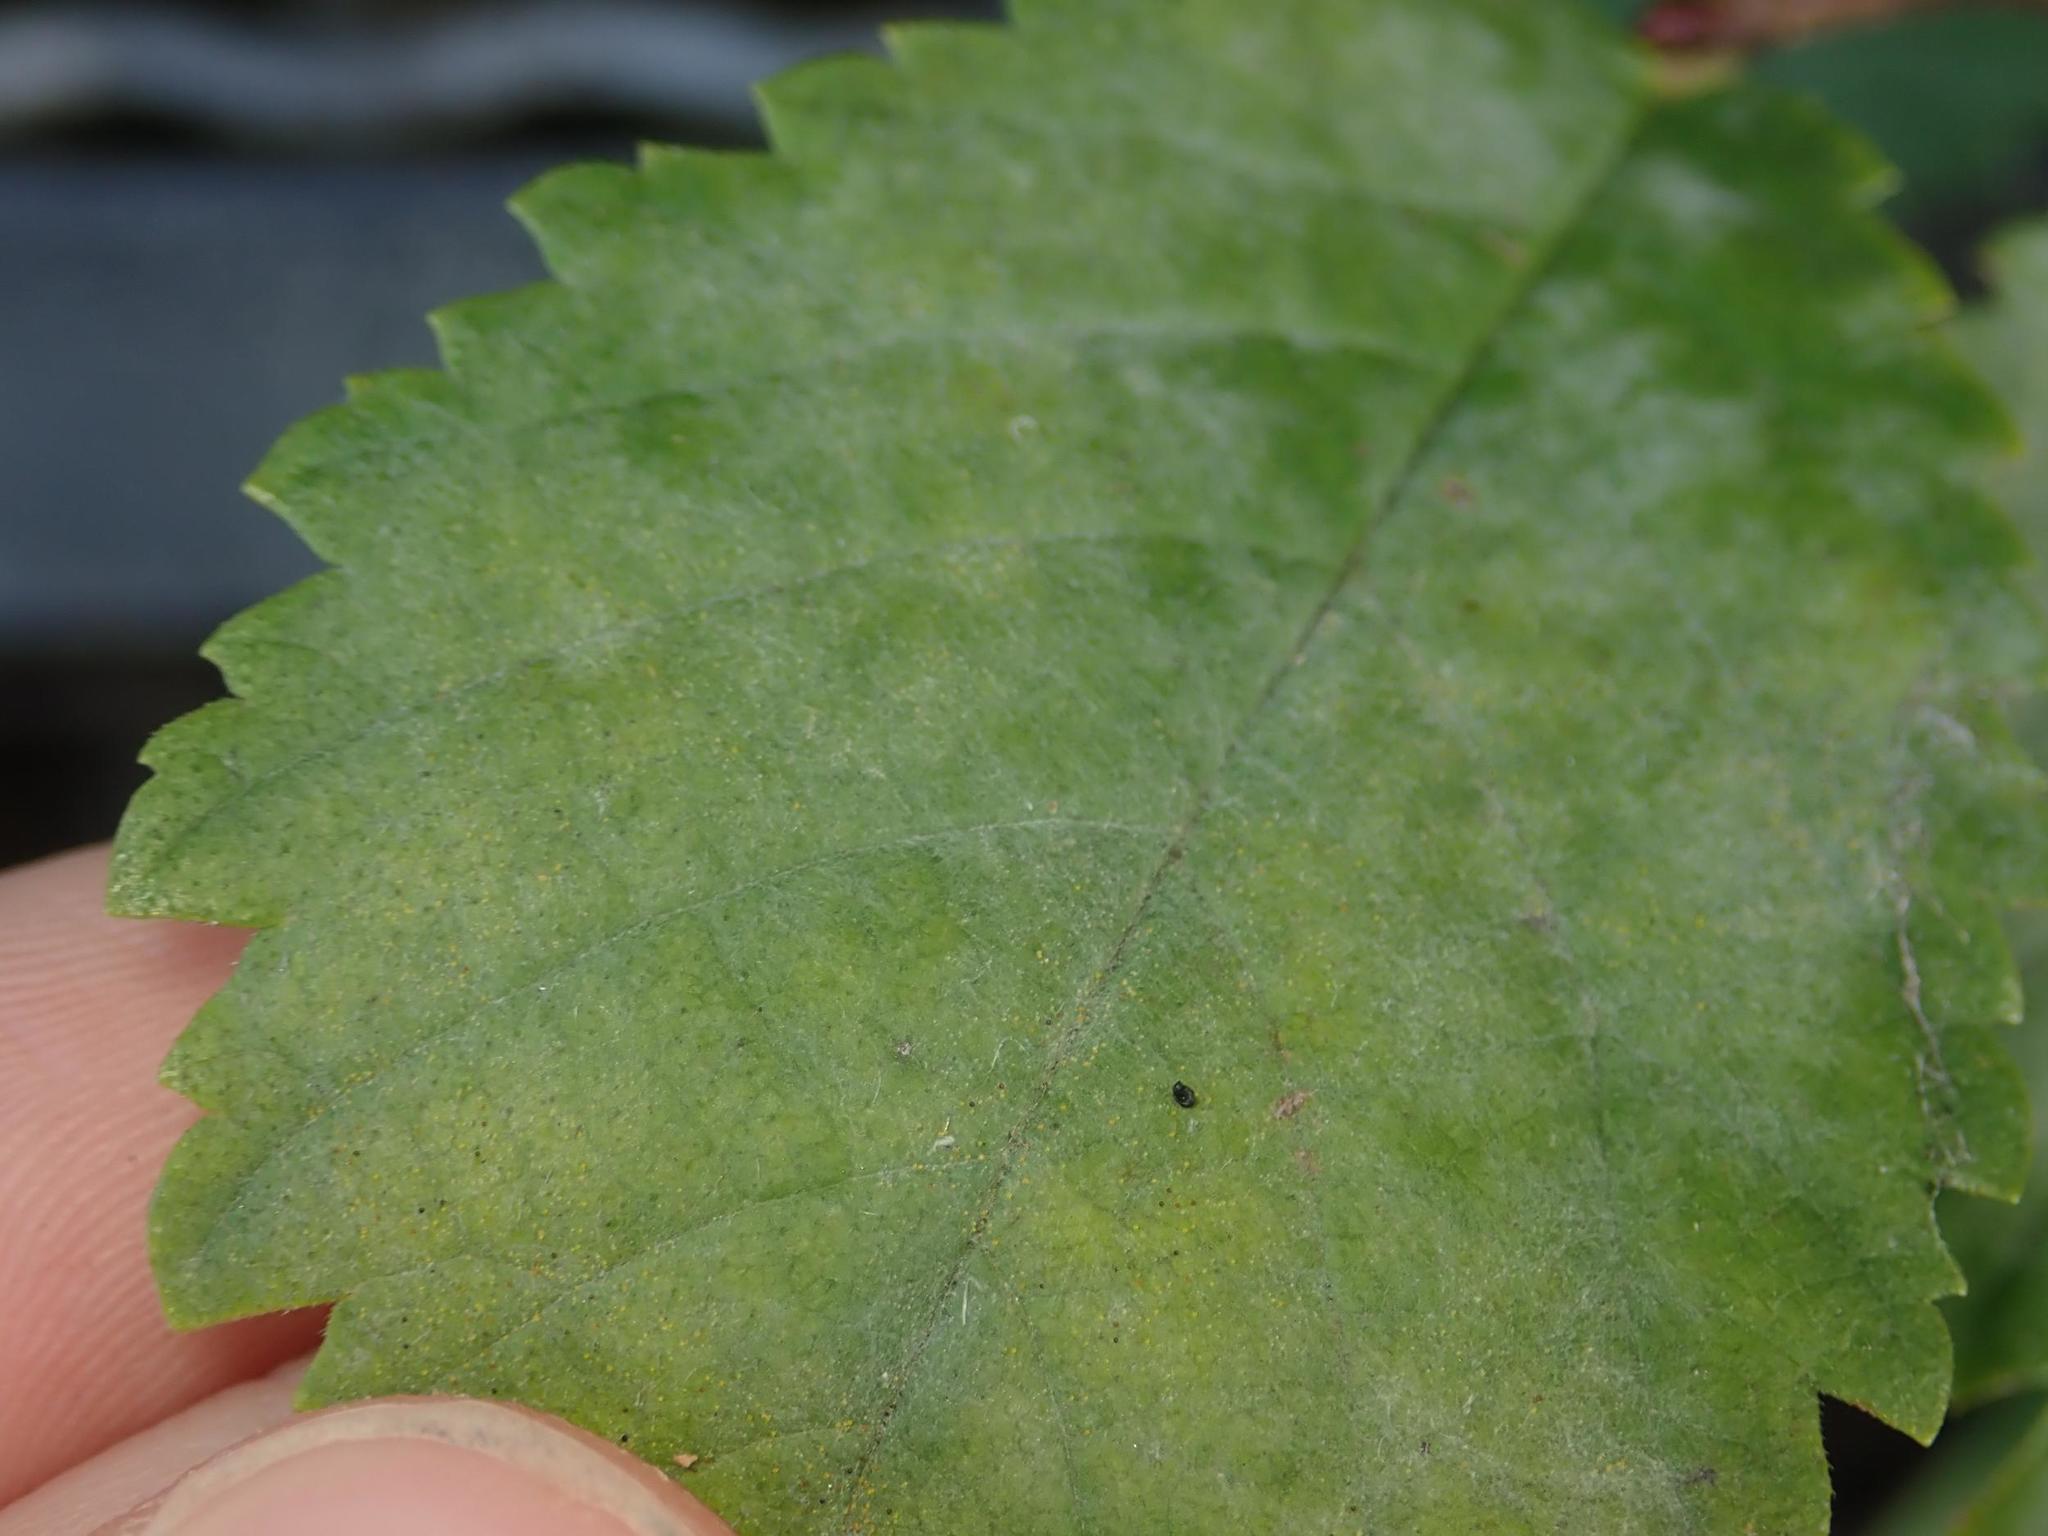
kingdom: Fungi
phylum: Ascomycota
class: Leotiomycetes
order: Helotiales
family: Erysiphaceae
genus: Erysiphe
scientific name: Erysiphe ulmi
